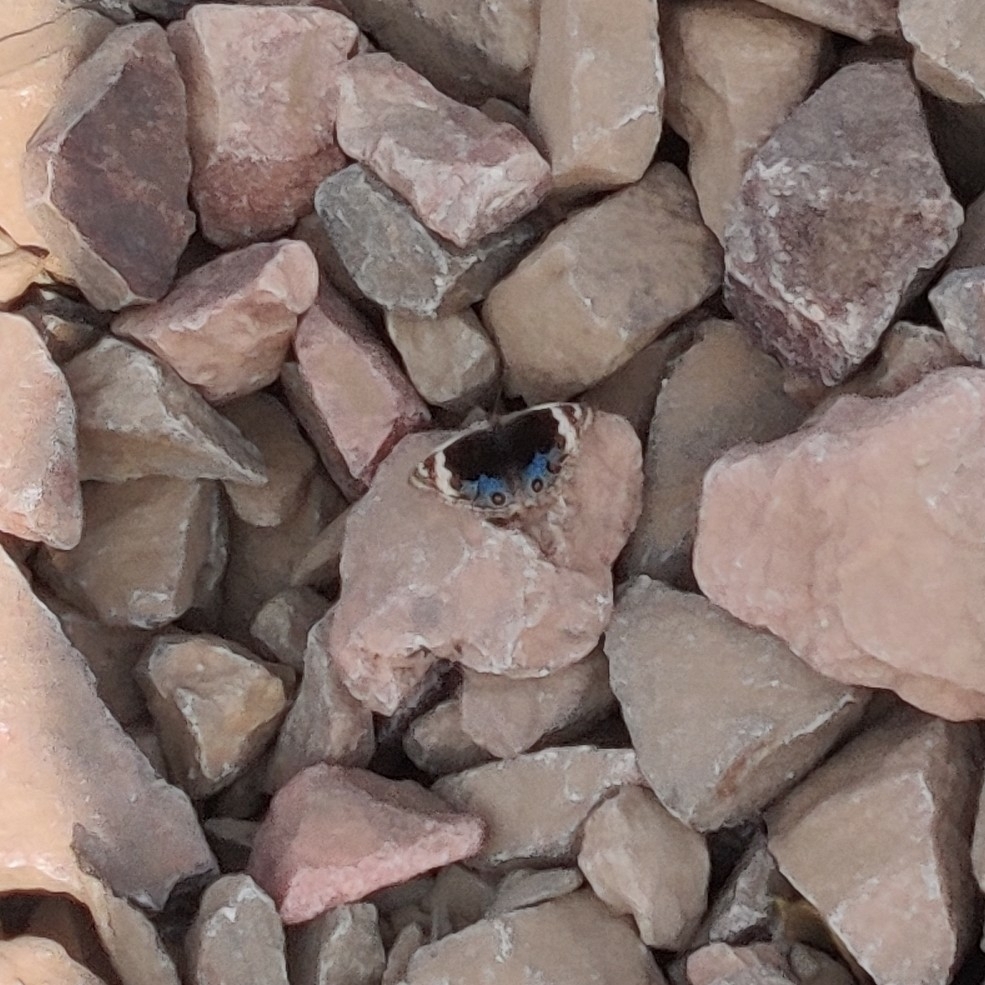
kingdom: Animalia
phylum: Arthropoda
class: Insecta
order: Lepidoptera
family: Nymphalidae
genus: Junonia
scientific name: Junonia orithya
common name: Blue pansy
